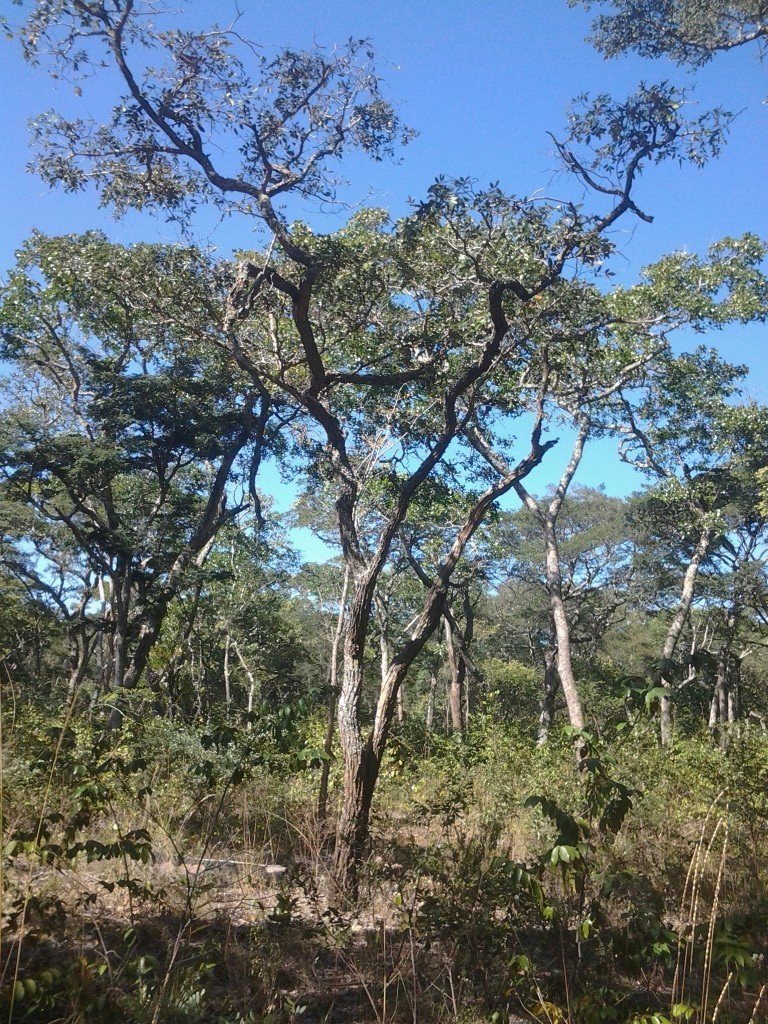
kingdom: Plantae
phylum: Tracheophyta
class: Magnoliopsida
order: Fabales
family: Fabaceae
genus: Bobgunnia
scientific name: Bobgunnia madagascariensis
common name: Snake bean plant
